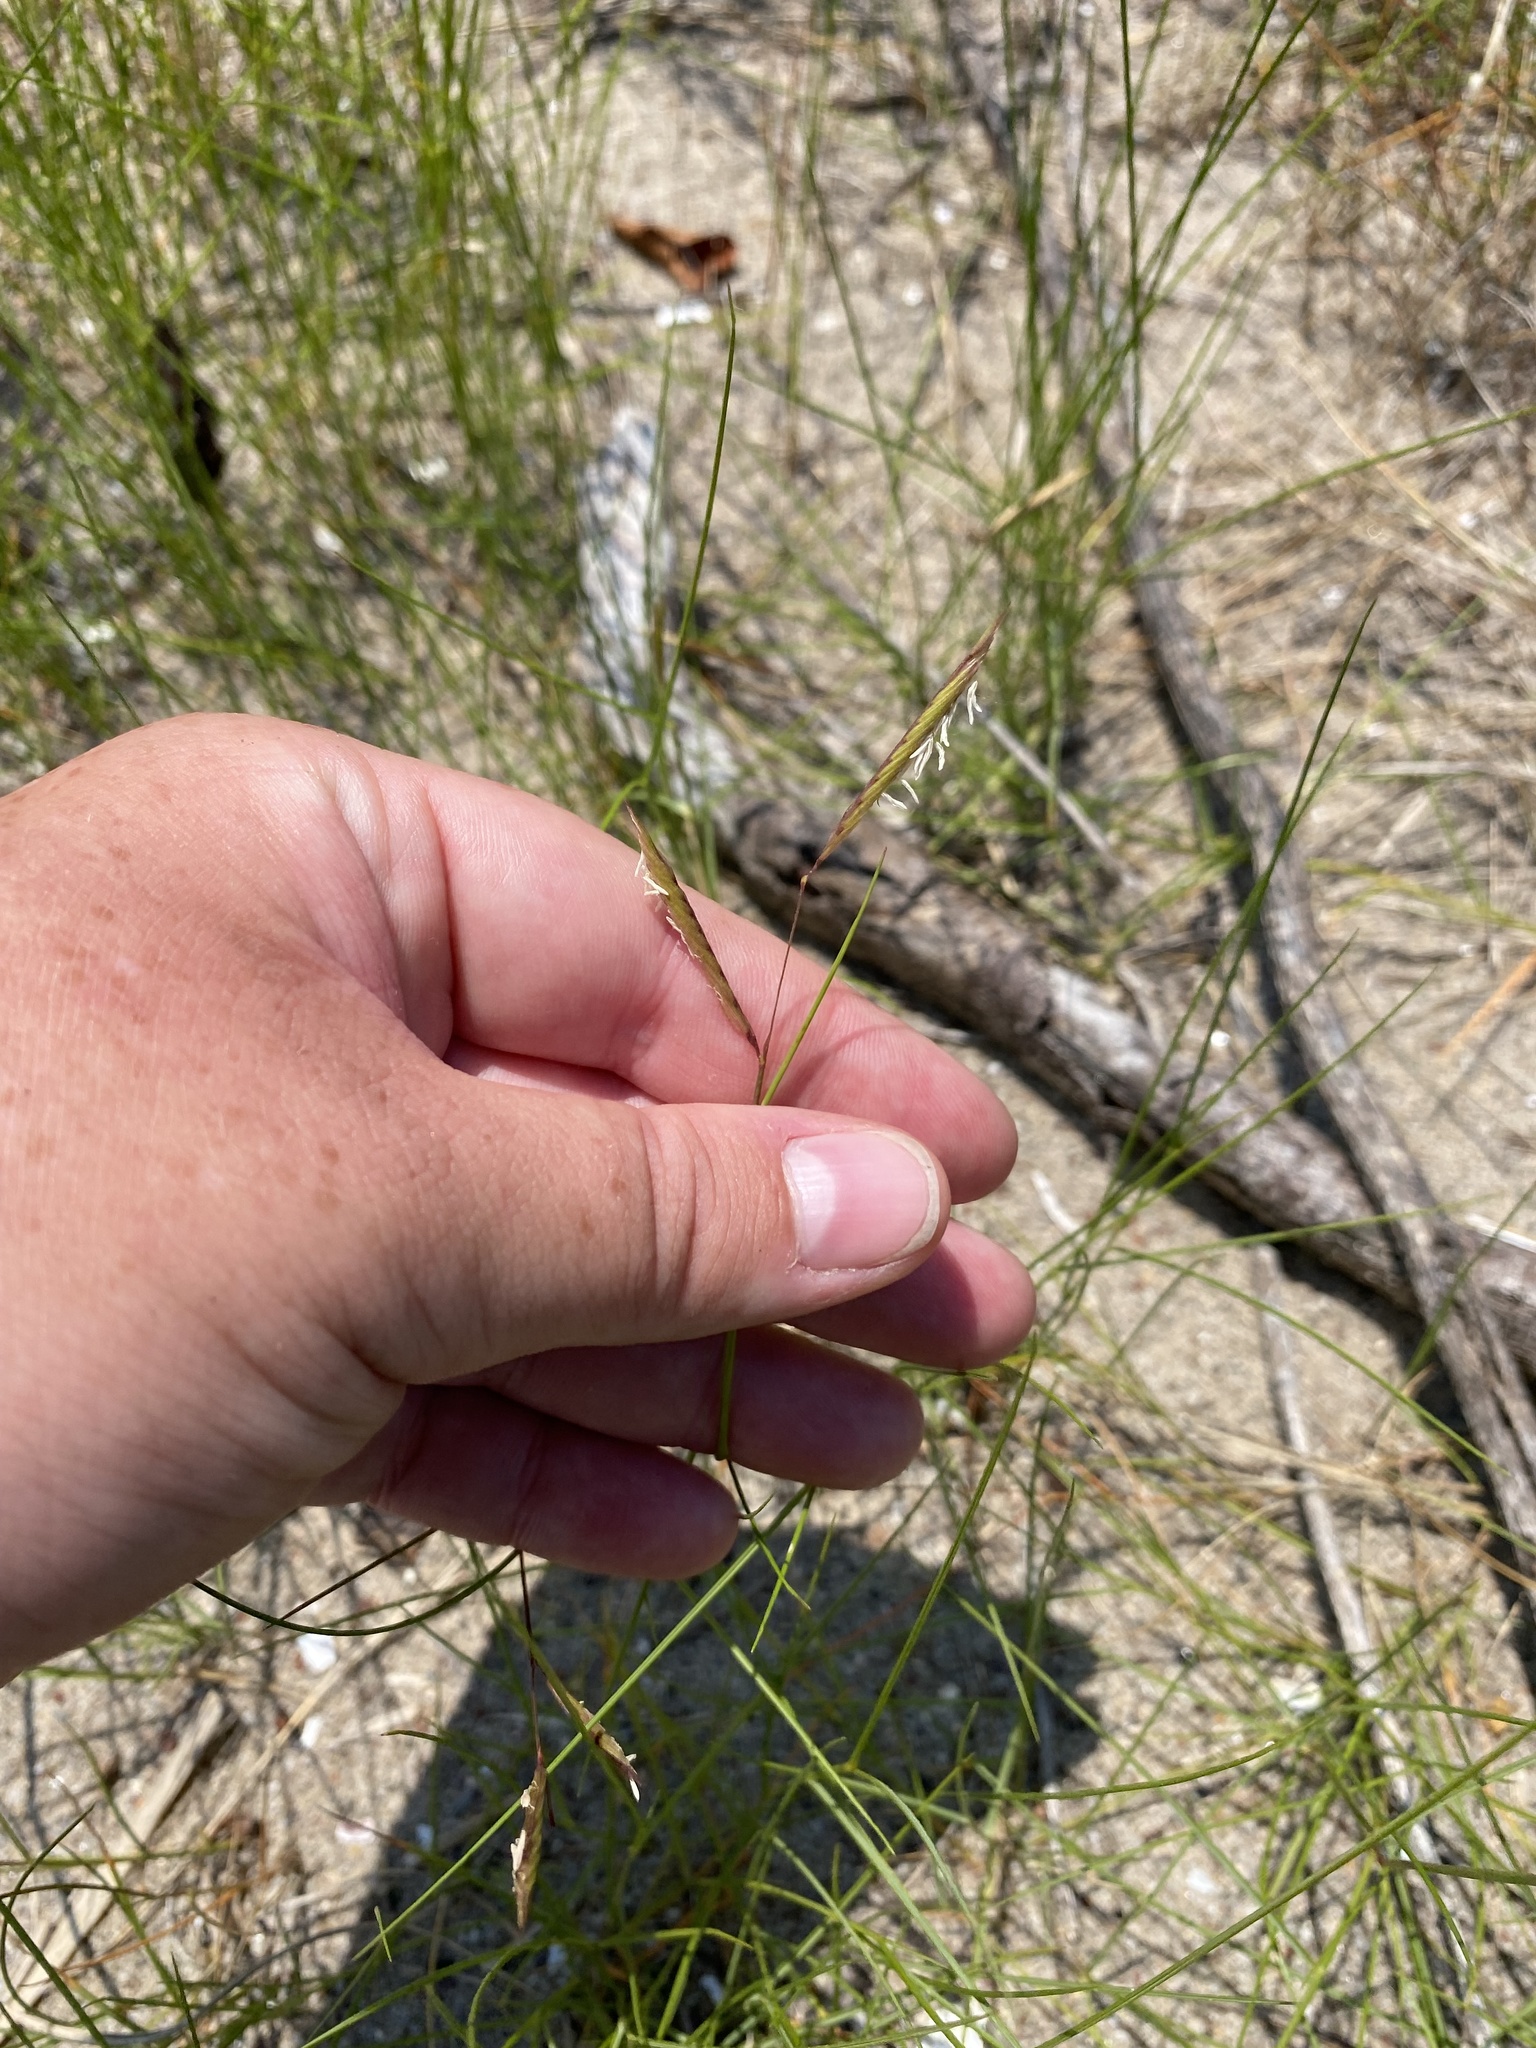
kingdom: Plantae
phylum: Tracheophyta
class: Liliopsida
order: Poales
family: Poaceae
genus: Sporobolus
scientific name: Sporobolus pumilus
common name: Highwater grass
